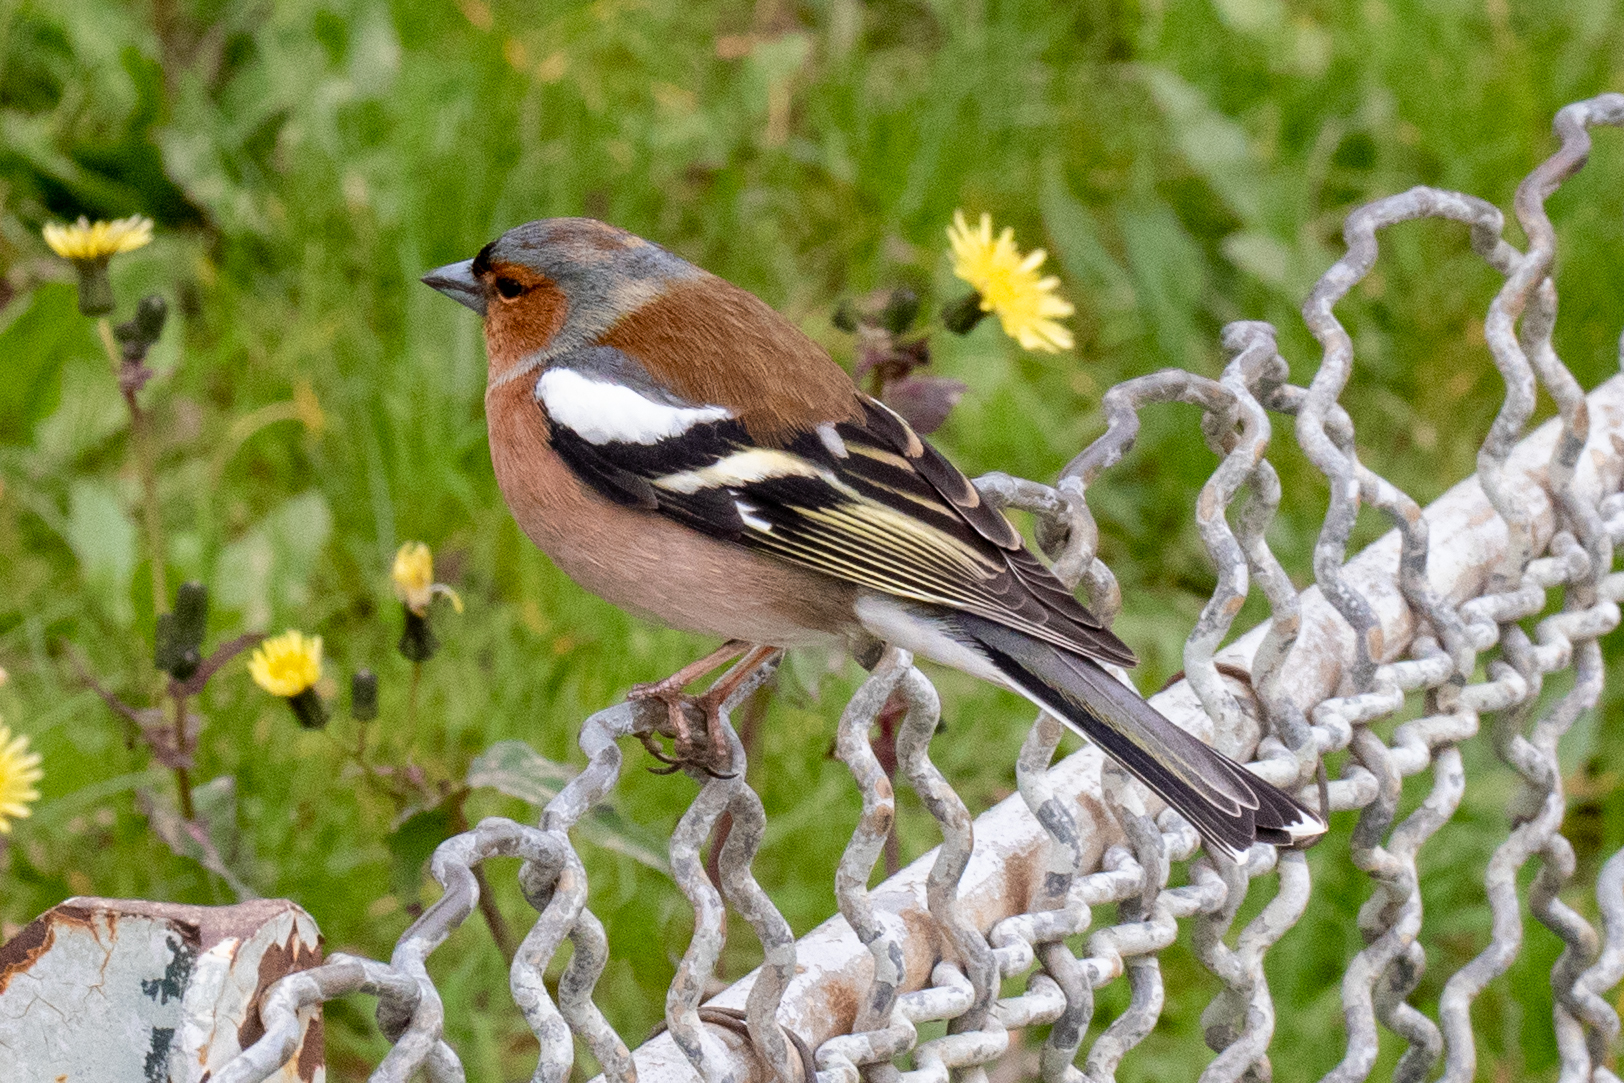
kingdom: Animalia
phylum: Chordata
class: Aves
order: Passeriformes
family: Fringillidae
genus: Fringilla
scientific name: Fringilla coelebs
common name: Common chaffinch
